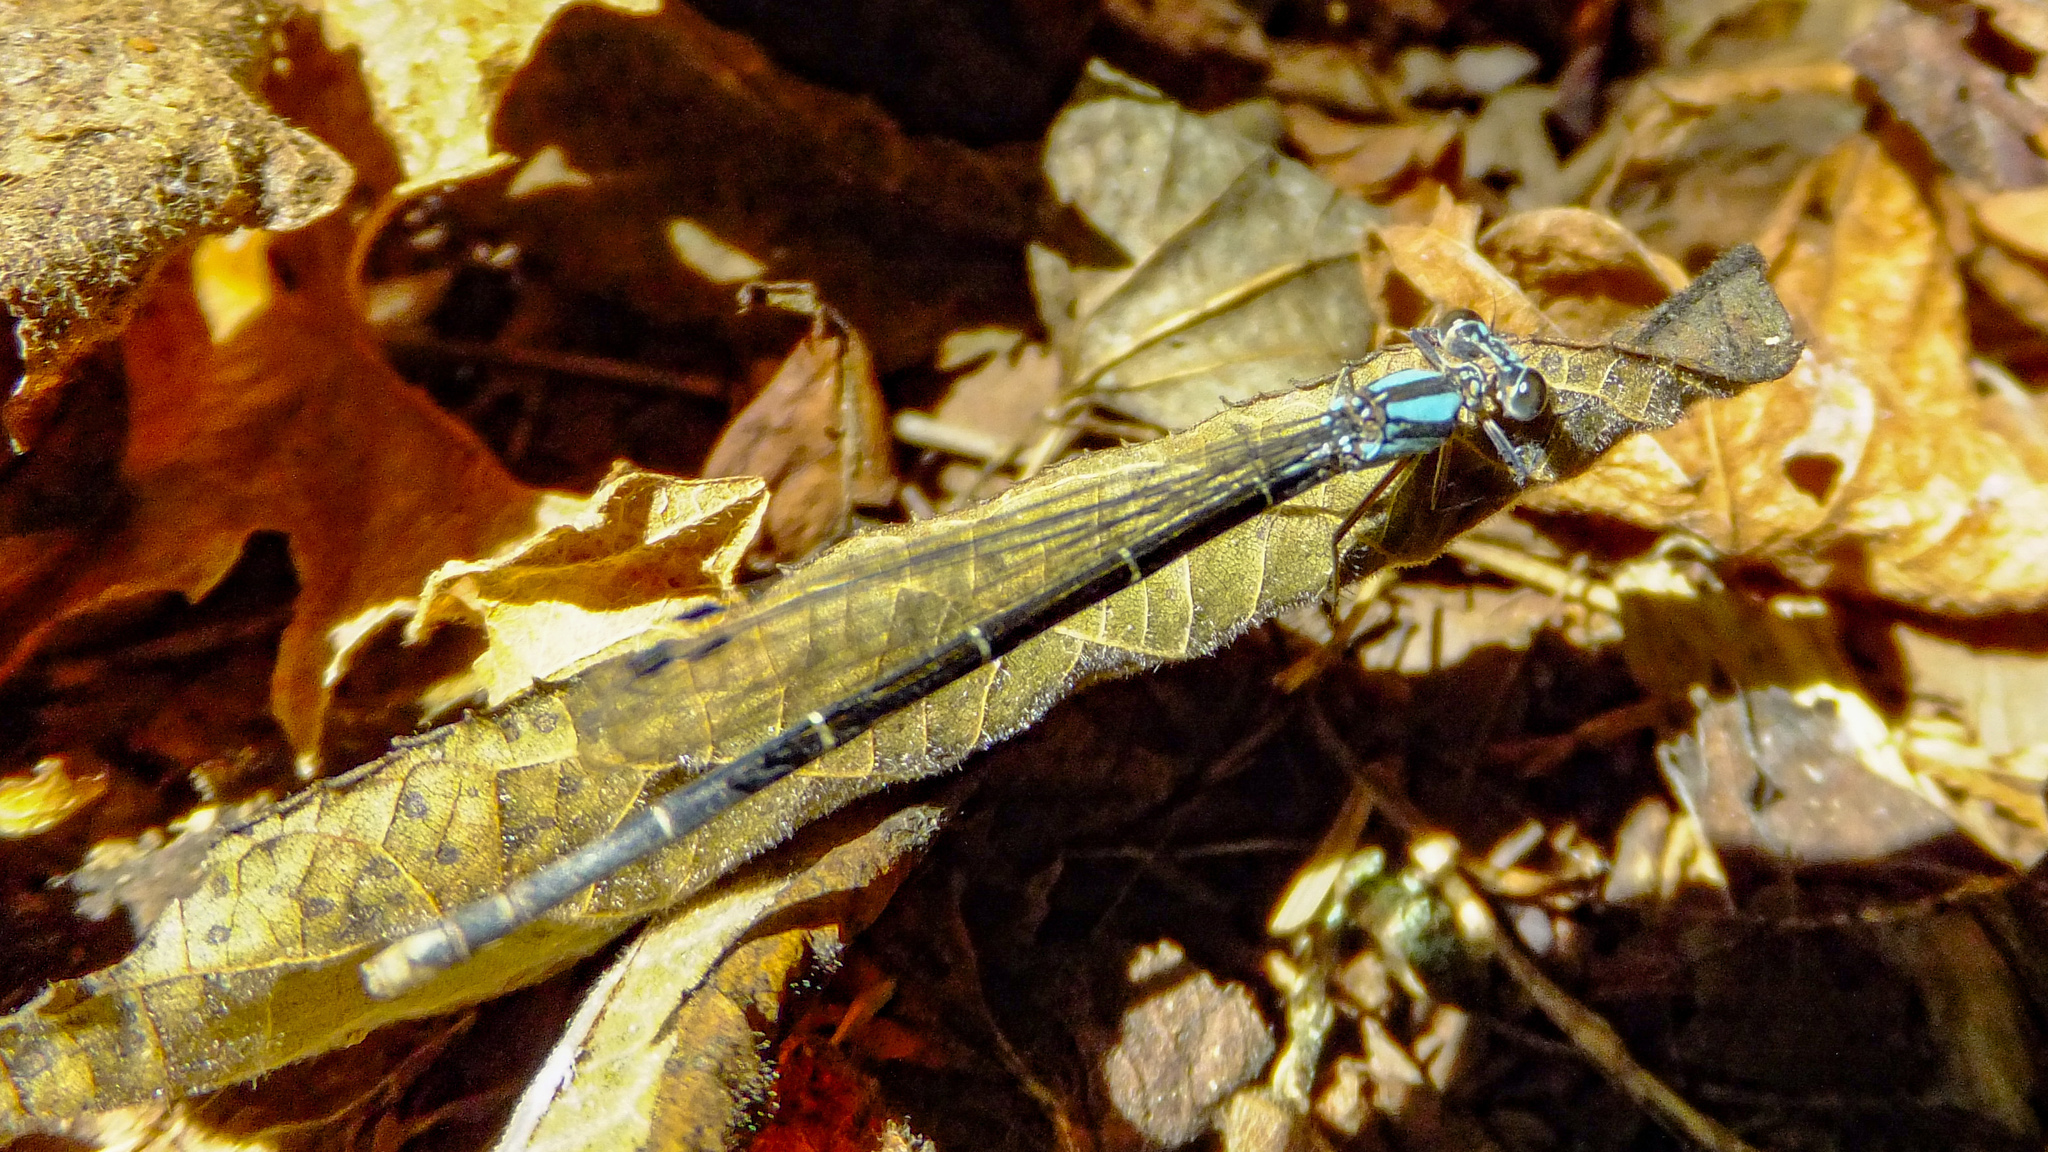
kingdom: Animalia
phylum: Arthropoda
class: Insecta
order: Odonata
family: Coenagrionidae
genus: Argia
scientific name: Argia tibialis
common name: Blue-tipped dancer
